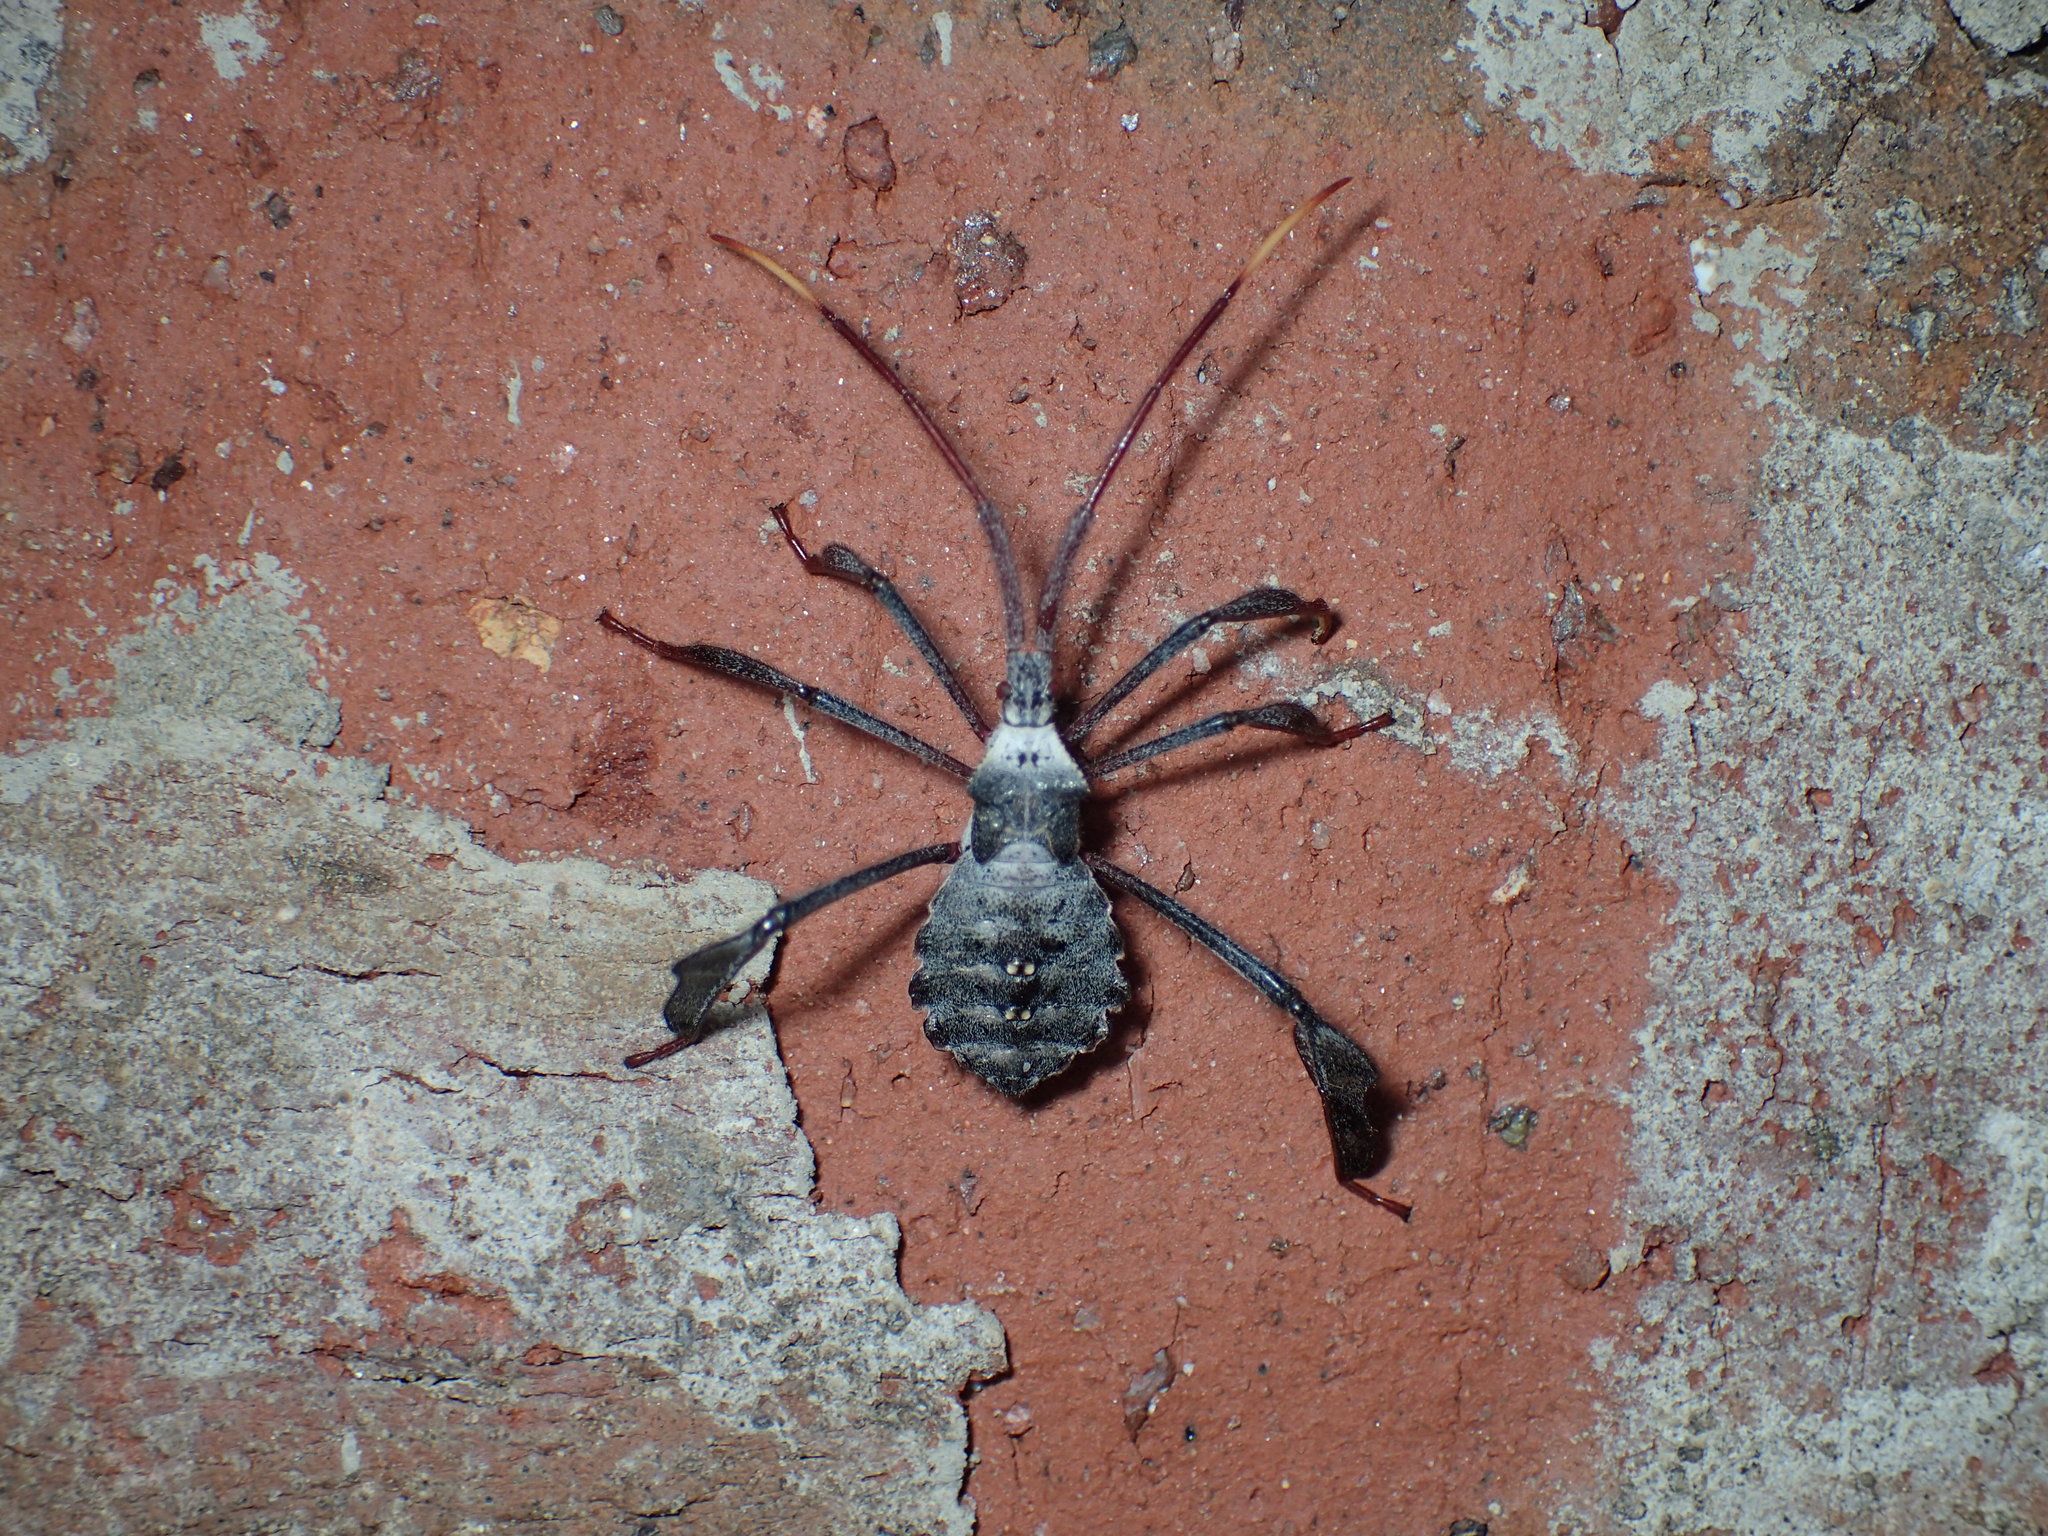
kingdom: Animalia
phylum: Arthropoda
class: Insecta
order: Hemiptera
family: Coreidae
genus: Acanthocephala
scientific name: Acanthocephala declivis
